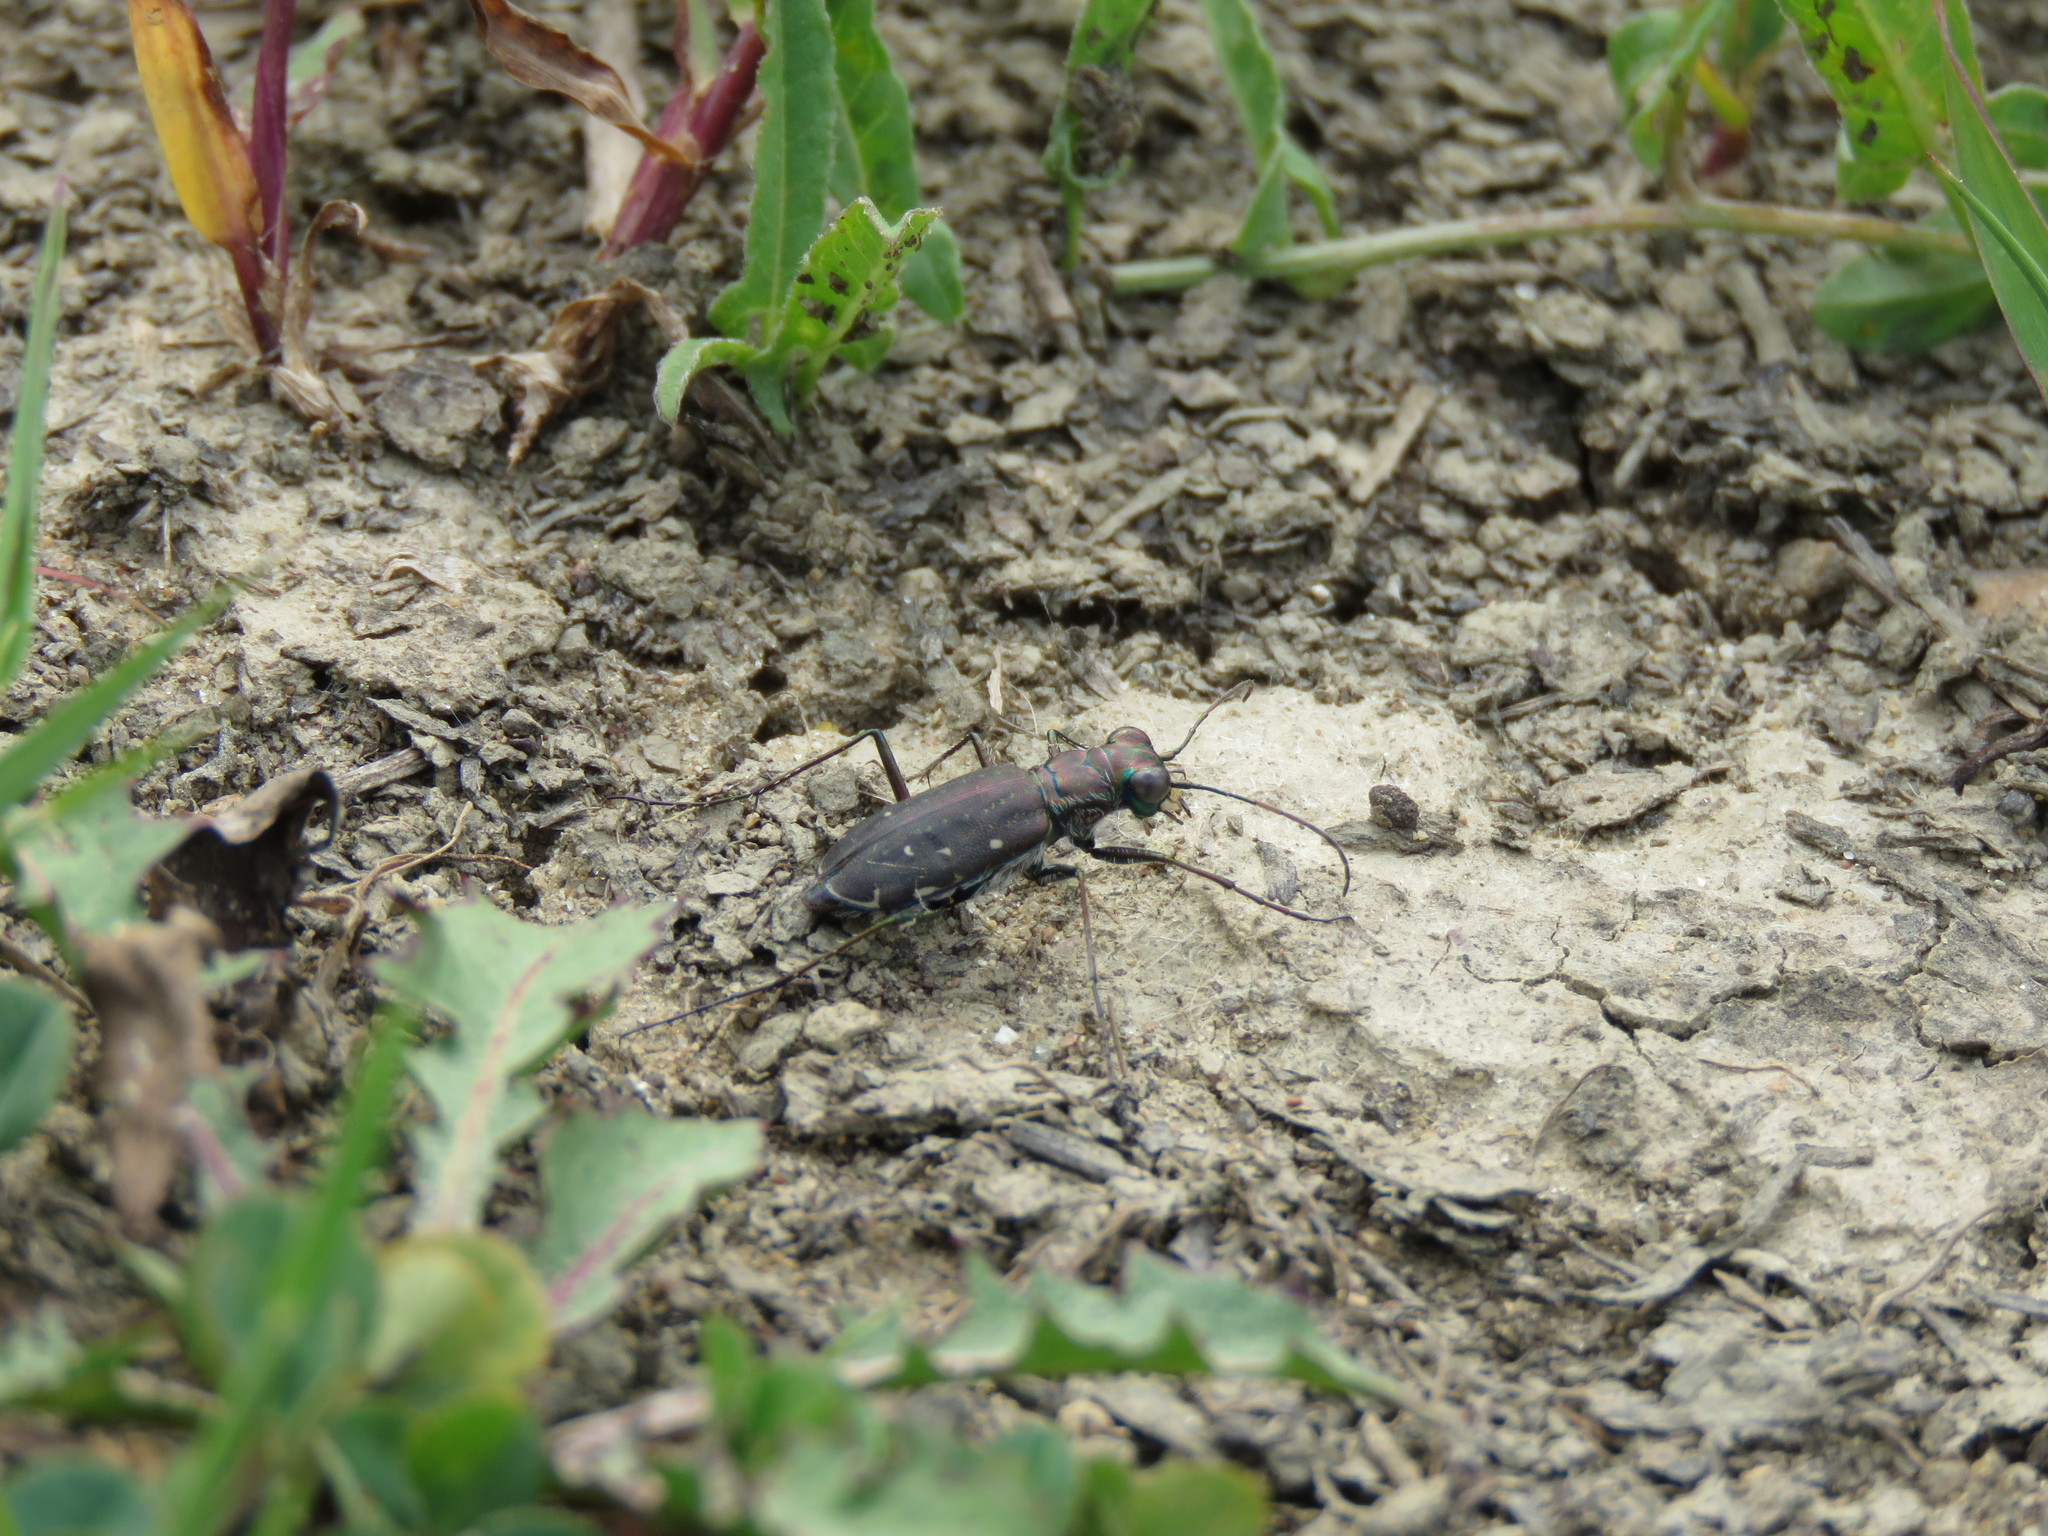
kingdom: Animalia
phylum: Arthropoda
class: Insecta
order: Coleoptera
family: Carabidae
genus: Cicindela
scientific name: Cicindela punctulata
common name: Punctured tiger beetle
